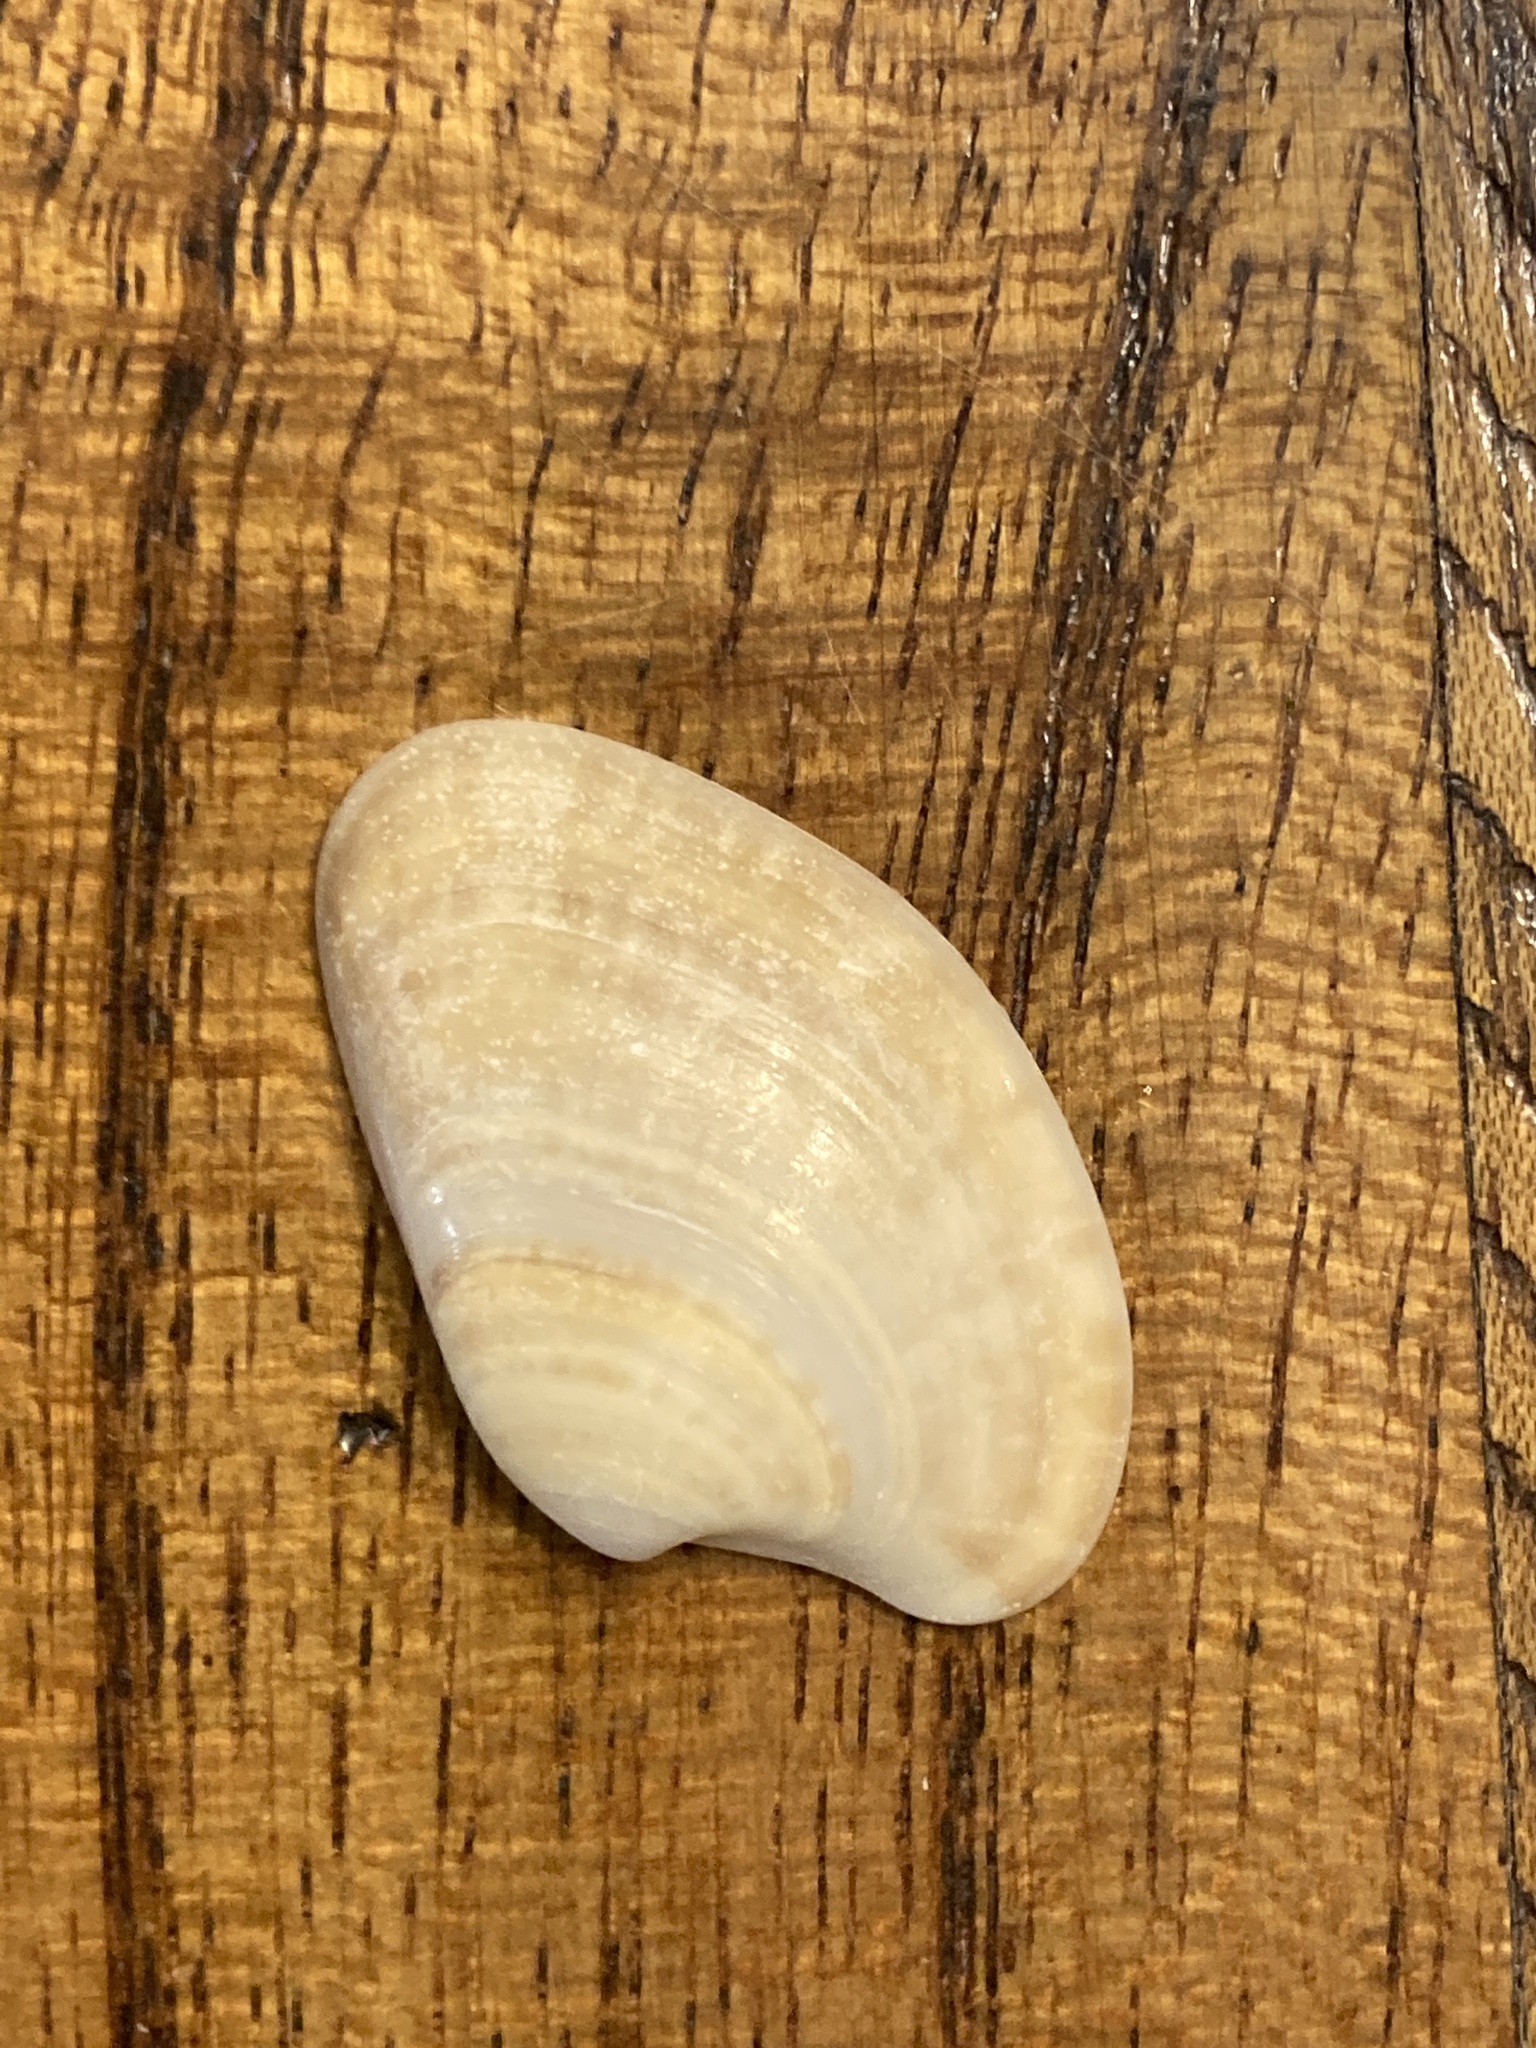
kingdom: Animalia
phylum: Mollusca
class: Bivalvia
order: Venerida
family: Veneridae
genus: Macrocallista
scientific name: Macrocallista nimbosa
